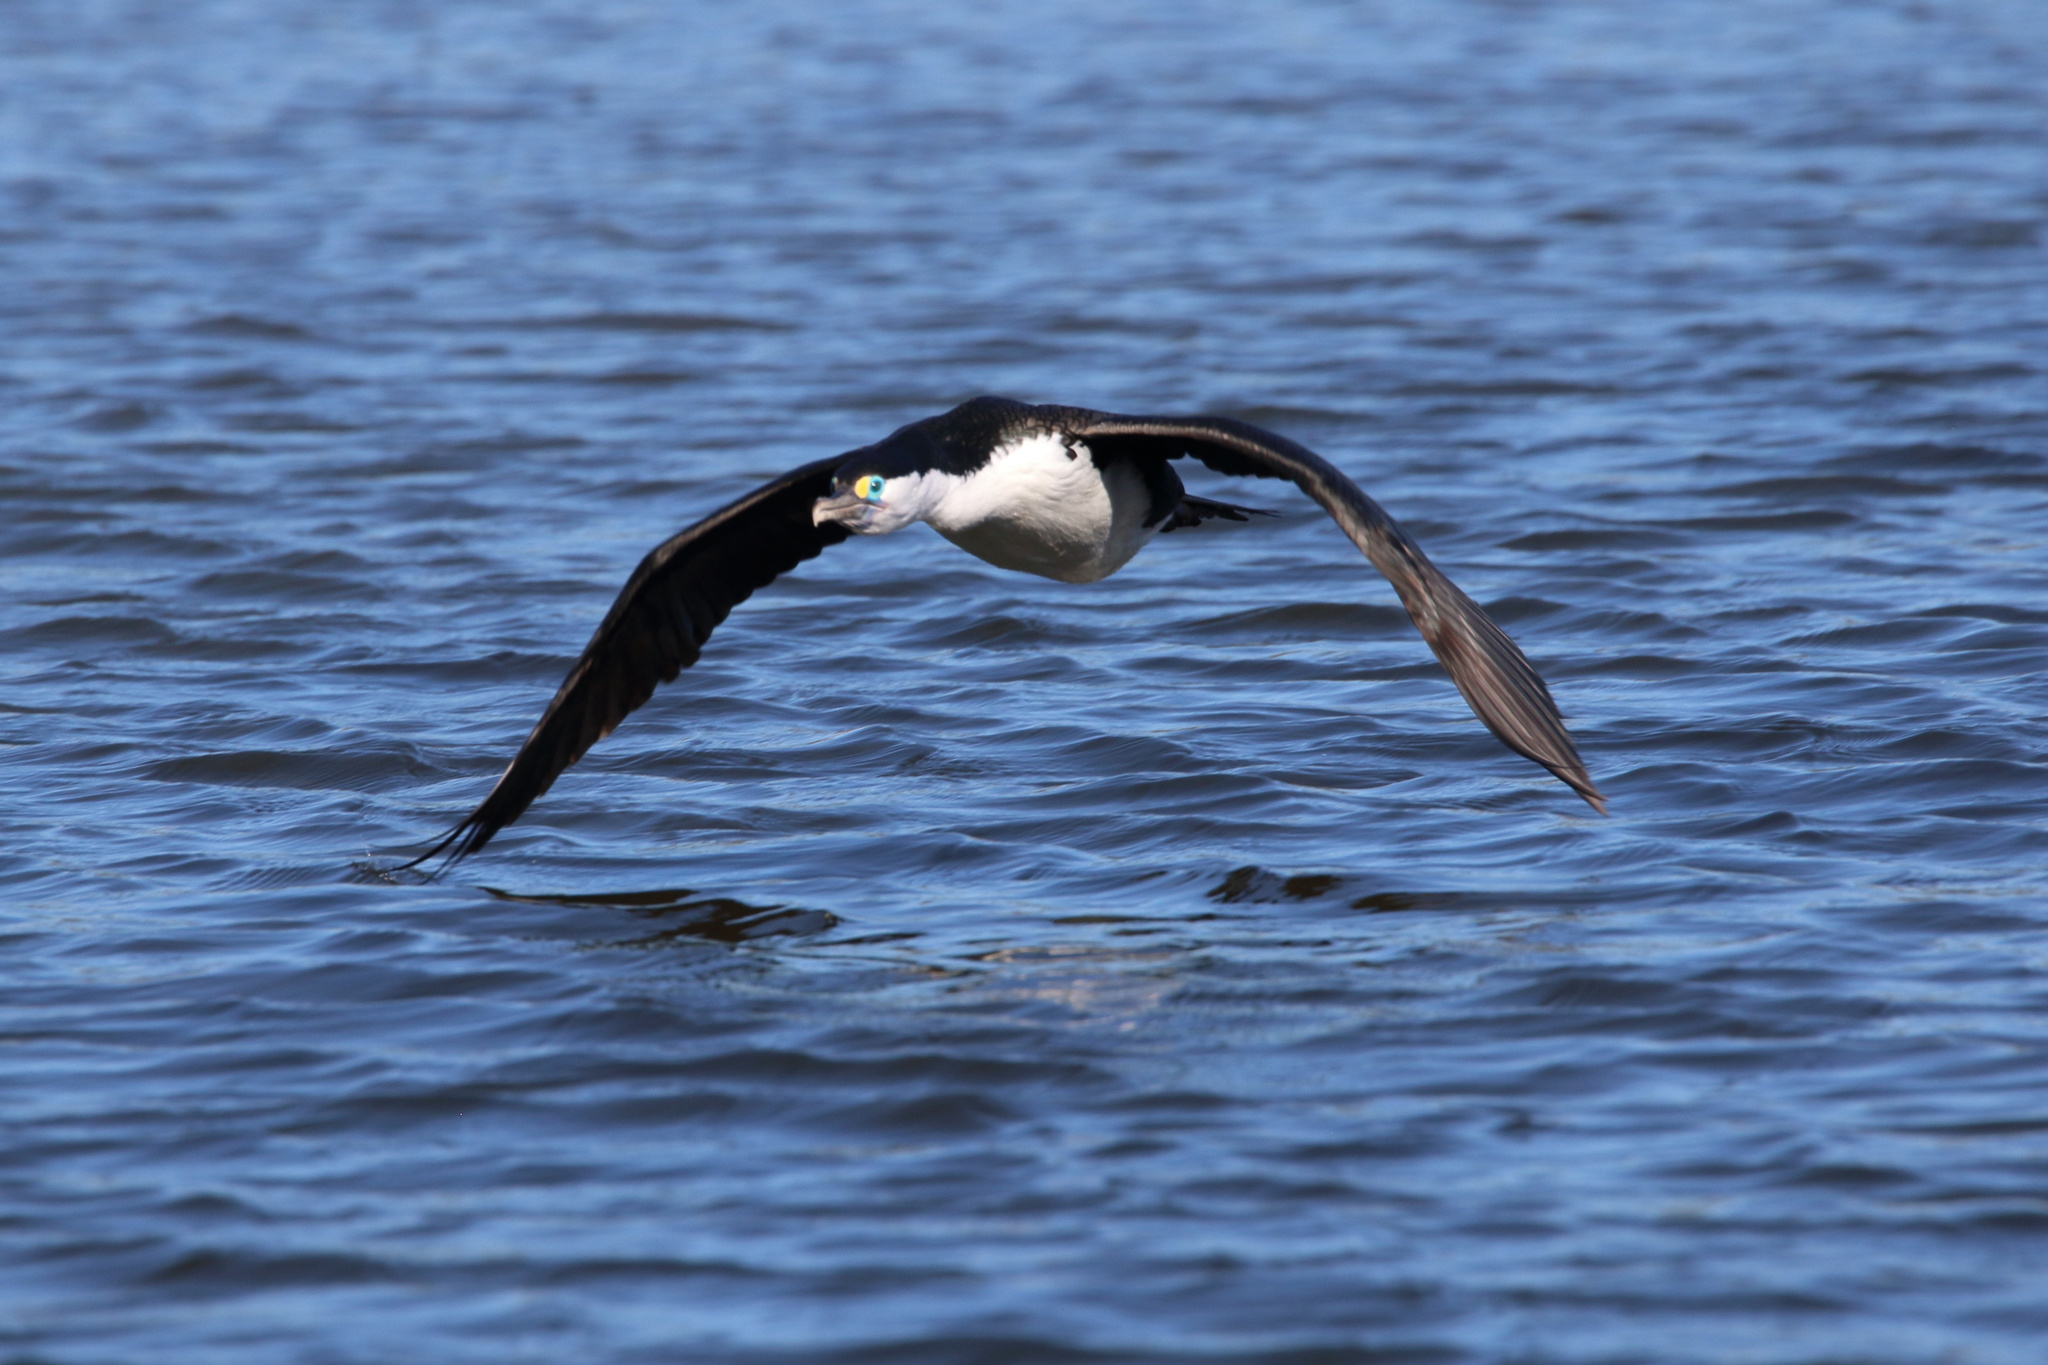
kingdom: Animalia
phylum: Chordata
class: Aves
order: Suliformes
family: Phalacrocoracidae
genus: Phalacrocorax
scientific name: Phalacrocorax varius
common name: Pied cormorant
